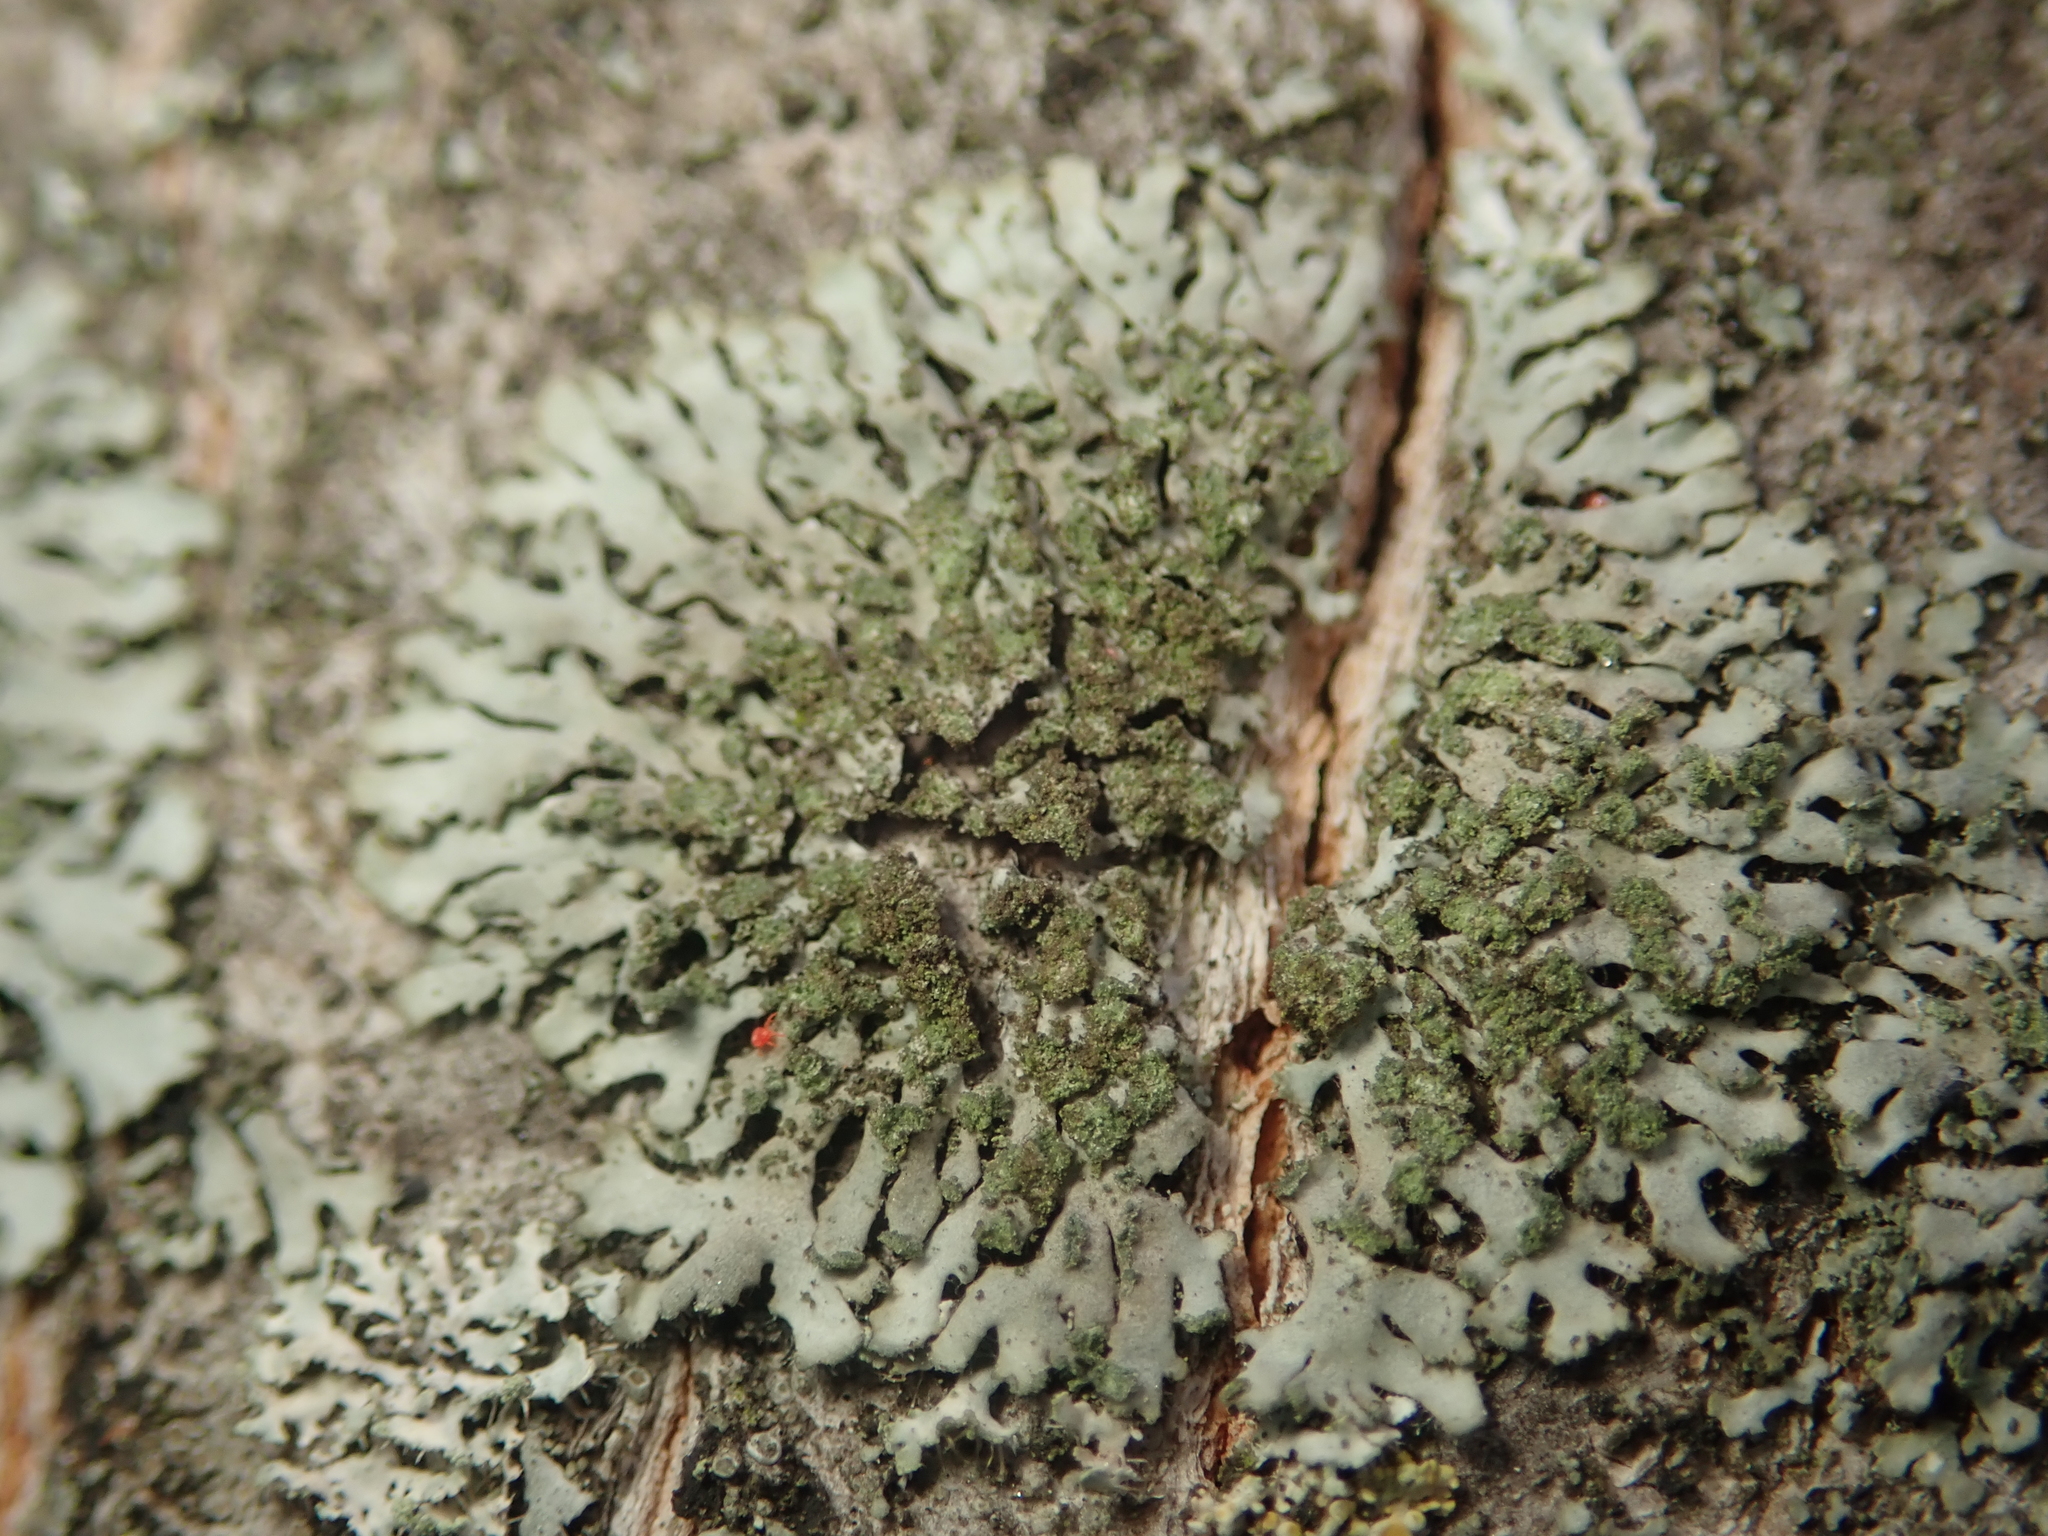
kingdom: Fungi
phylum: Ascomycota
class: Lecanoromycetes
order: Caliciales
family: Physciaceae
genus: Phaeophyscia
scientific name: Phaeophyscia orbicularis
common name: Mealy shadow lichen
